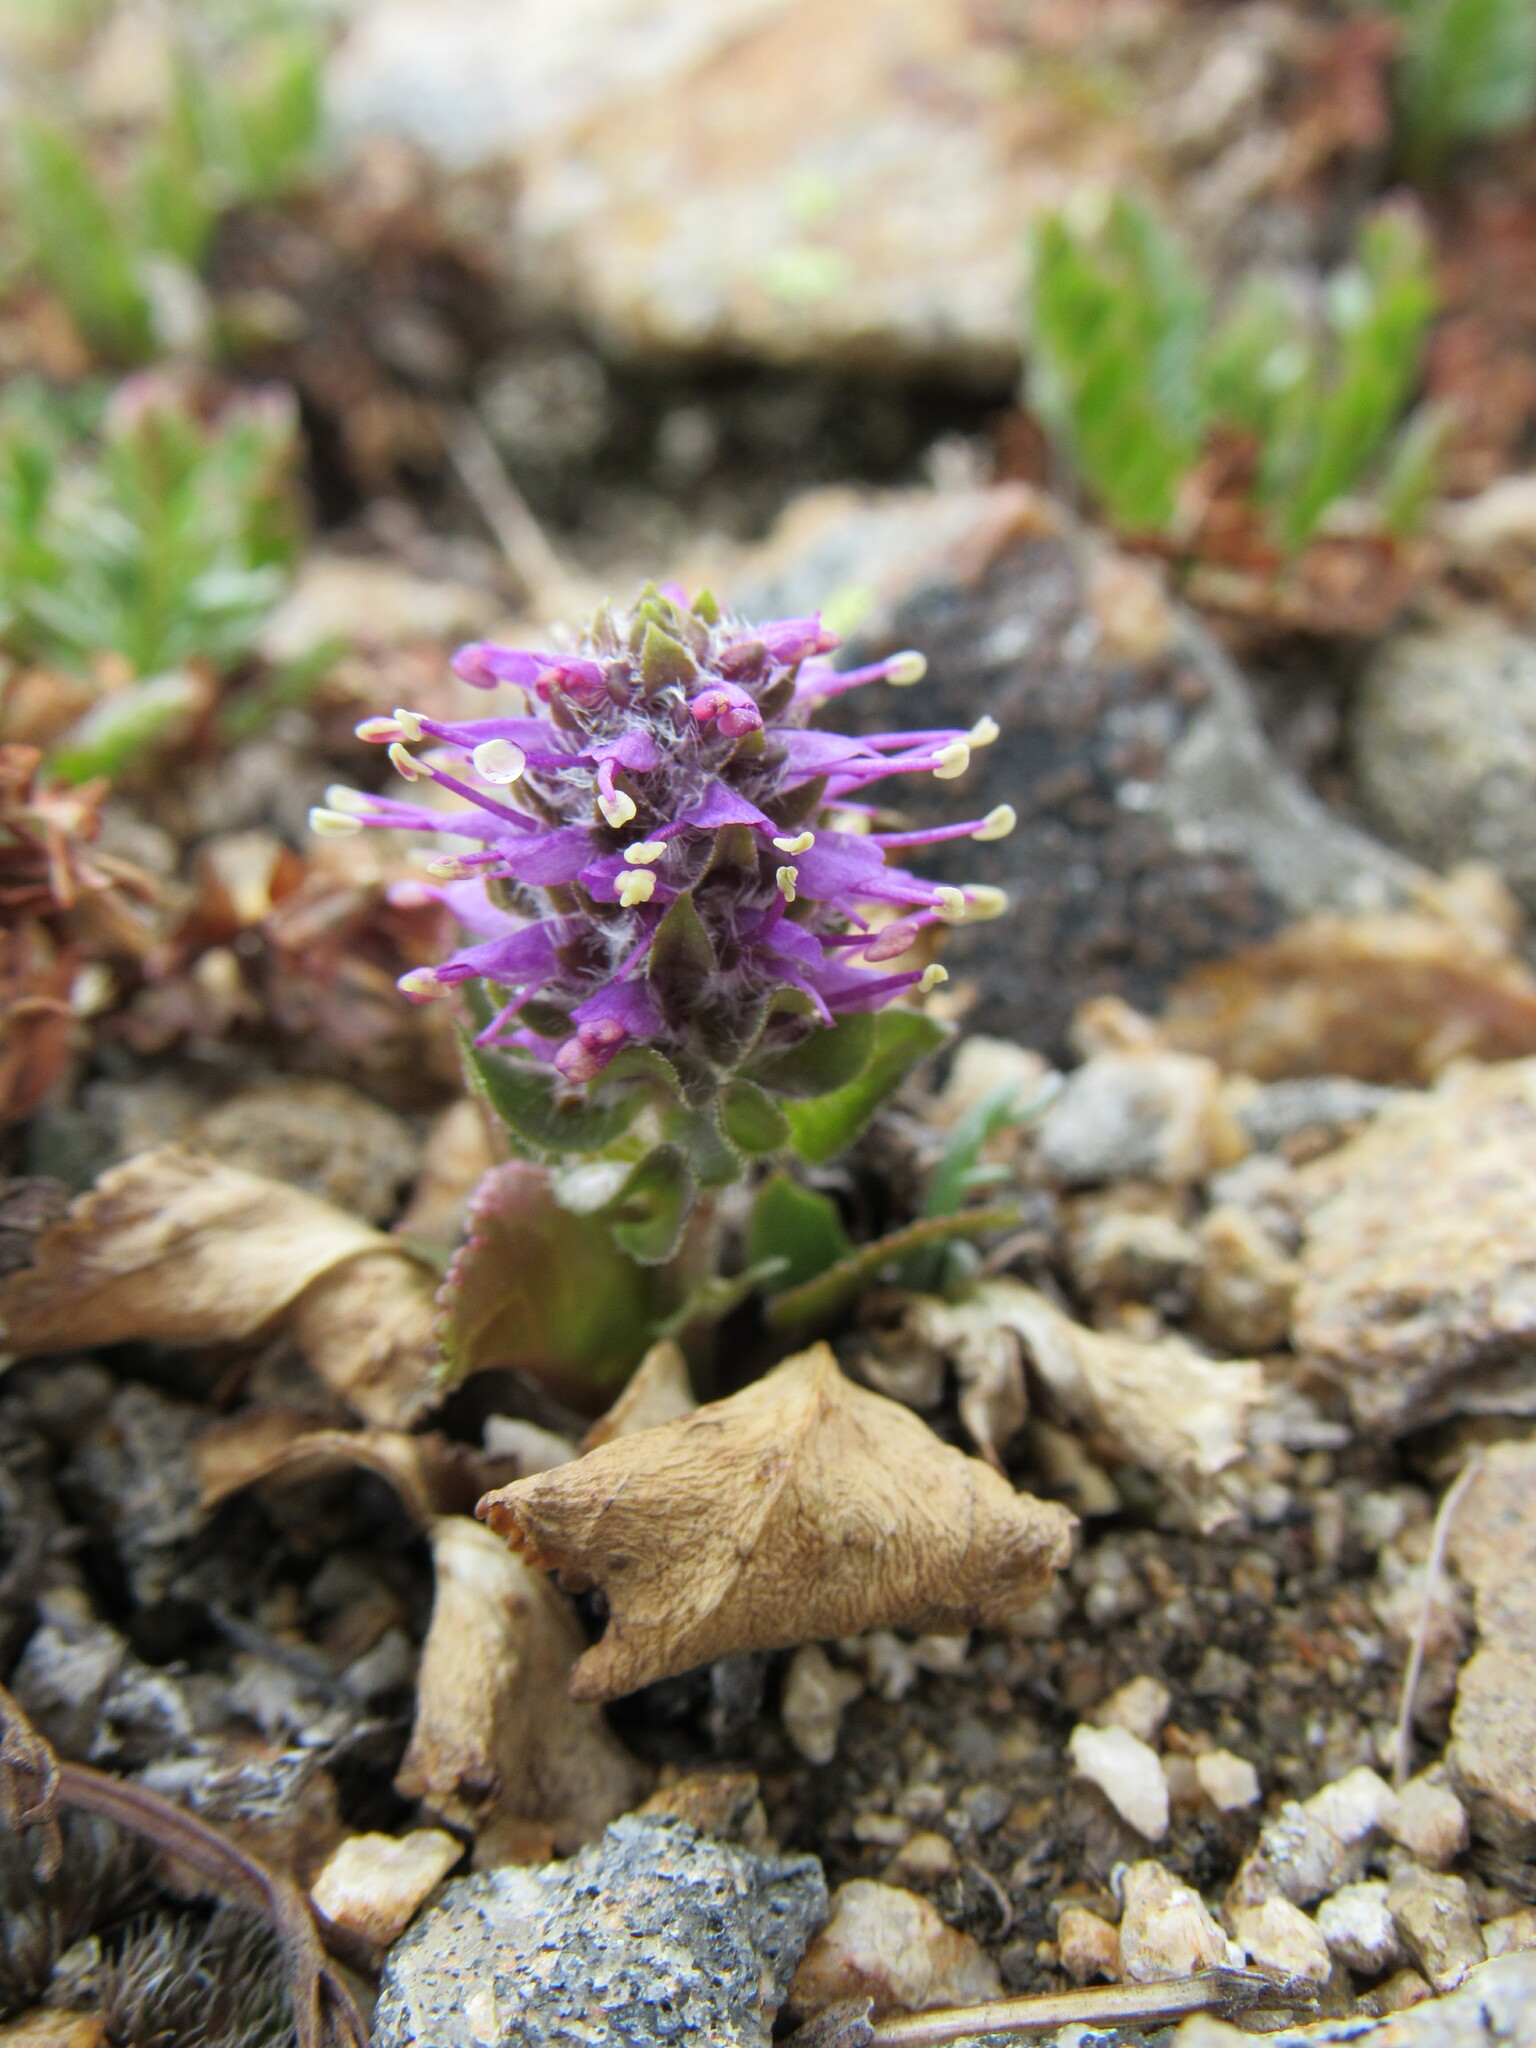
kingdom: Plantae
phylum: Tracheophyta
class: Magnoliopsida
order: Lamiales
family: Plantaginaceae
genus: Synthyris
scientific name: Synthyris alpina
